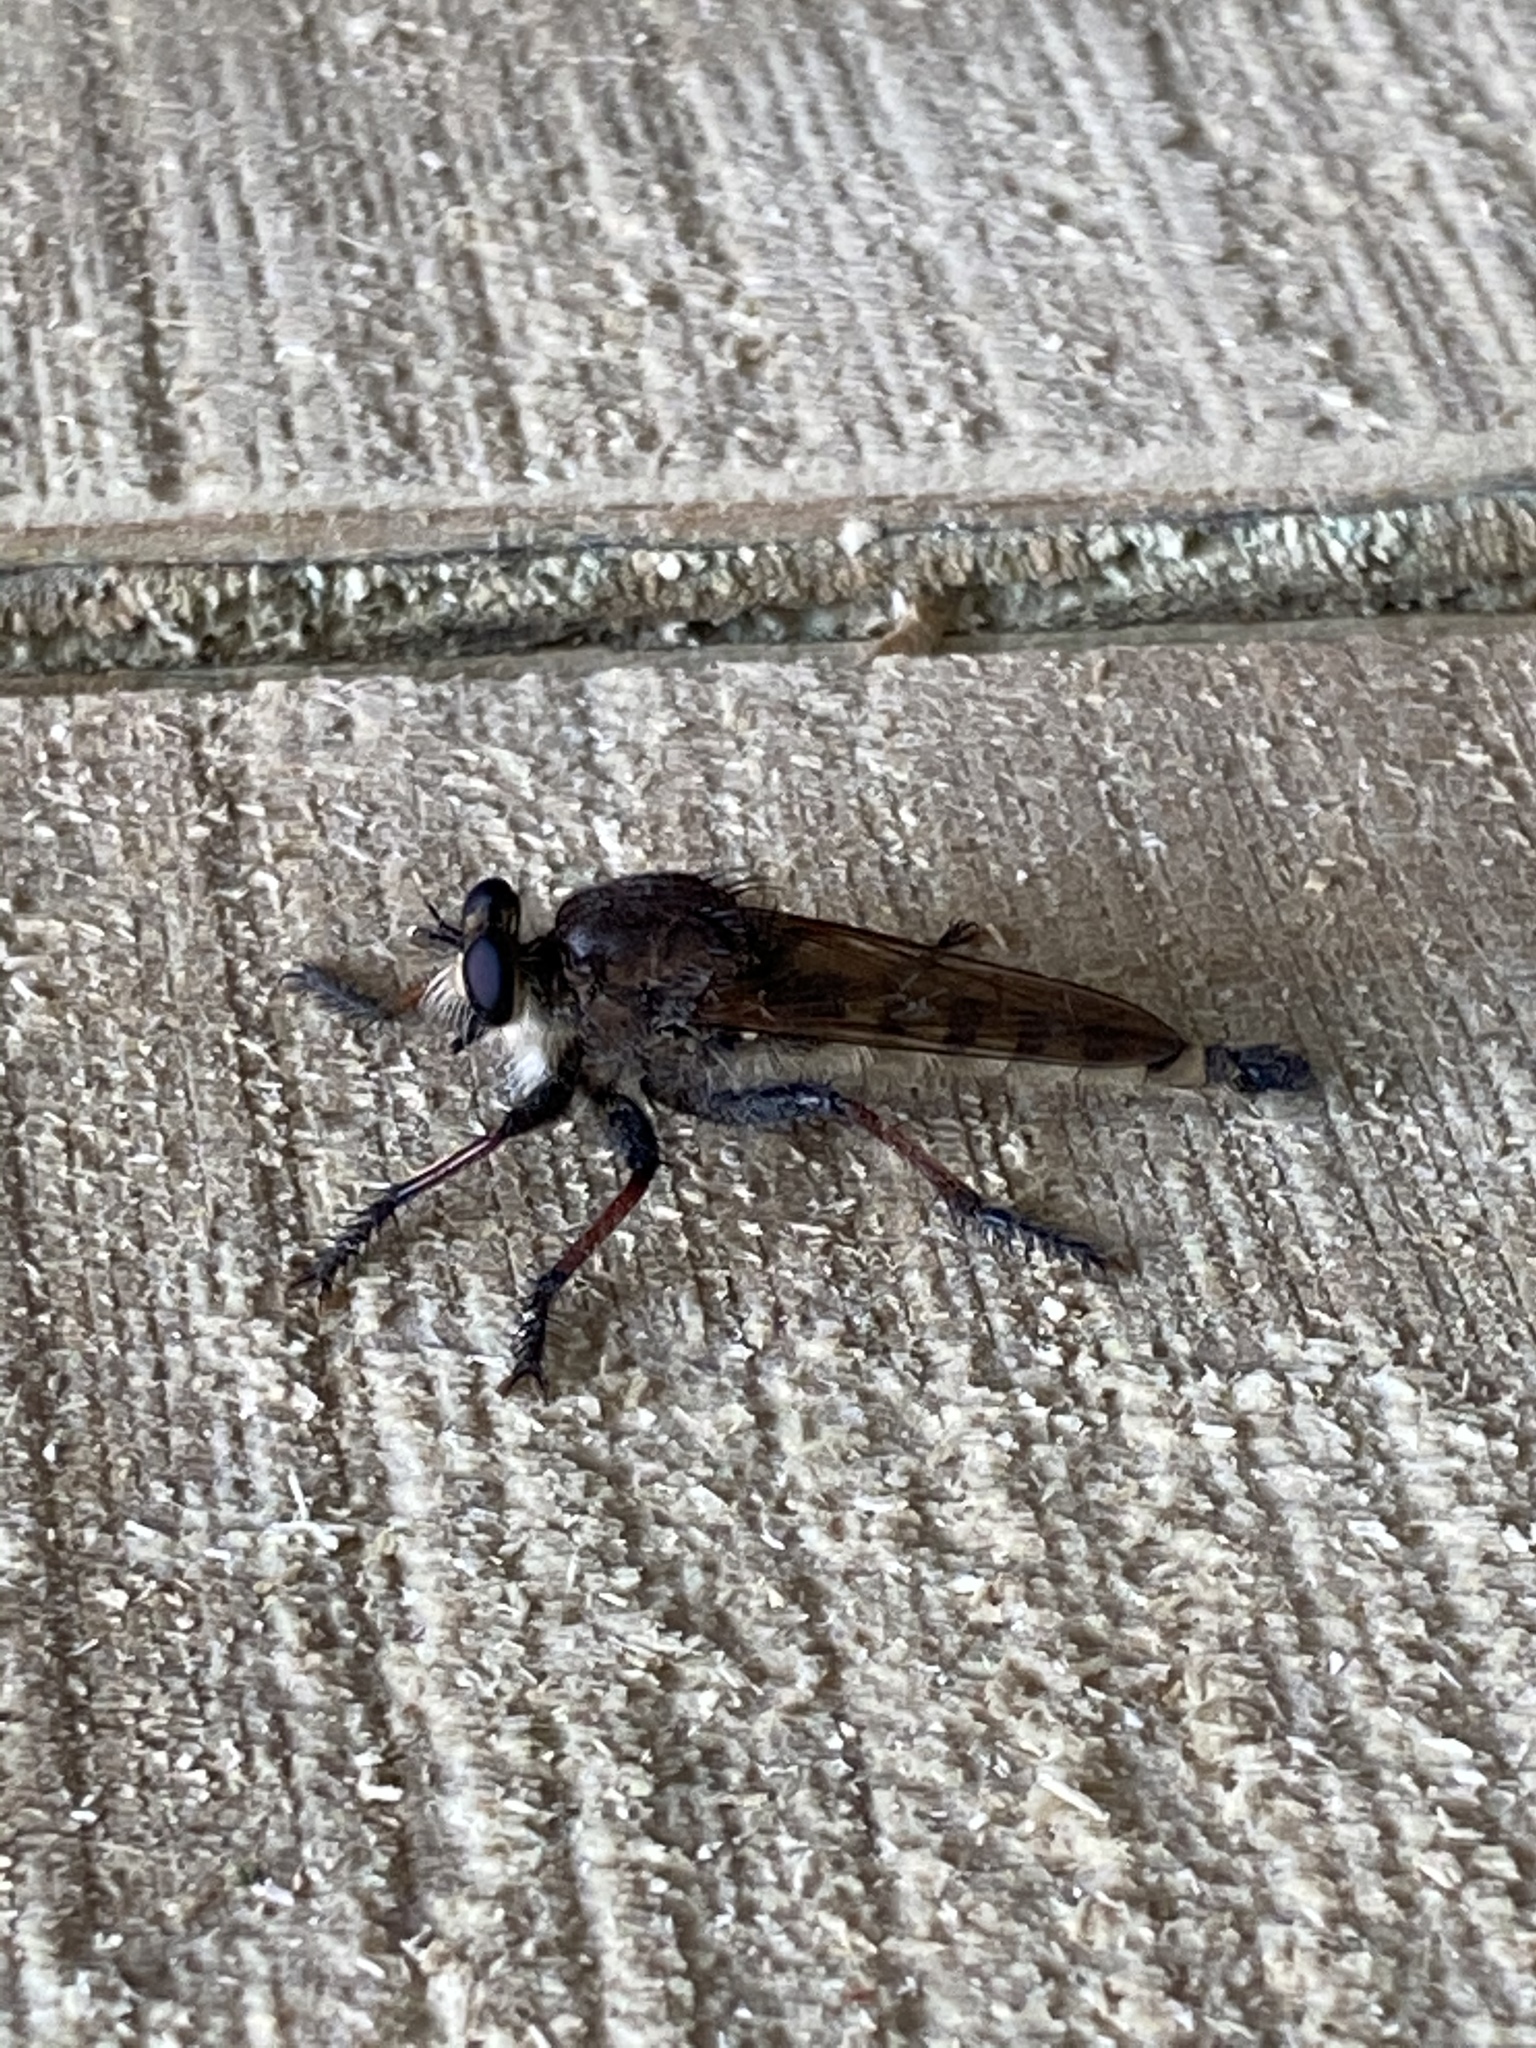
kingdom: Animalia
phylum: Arthropoda
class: Insecta
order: Diptera
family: Asilidae
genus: Promachus
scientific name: Promachus rufipes
